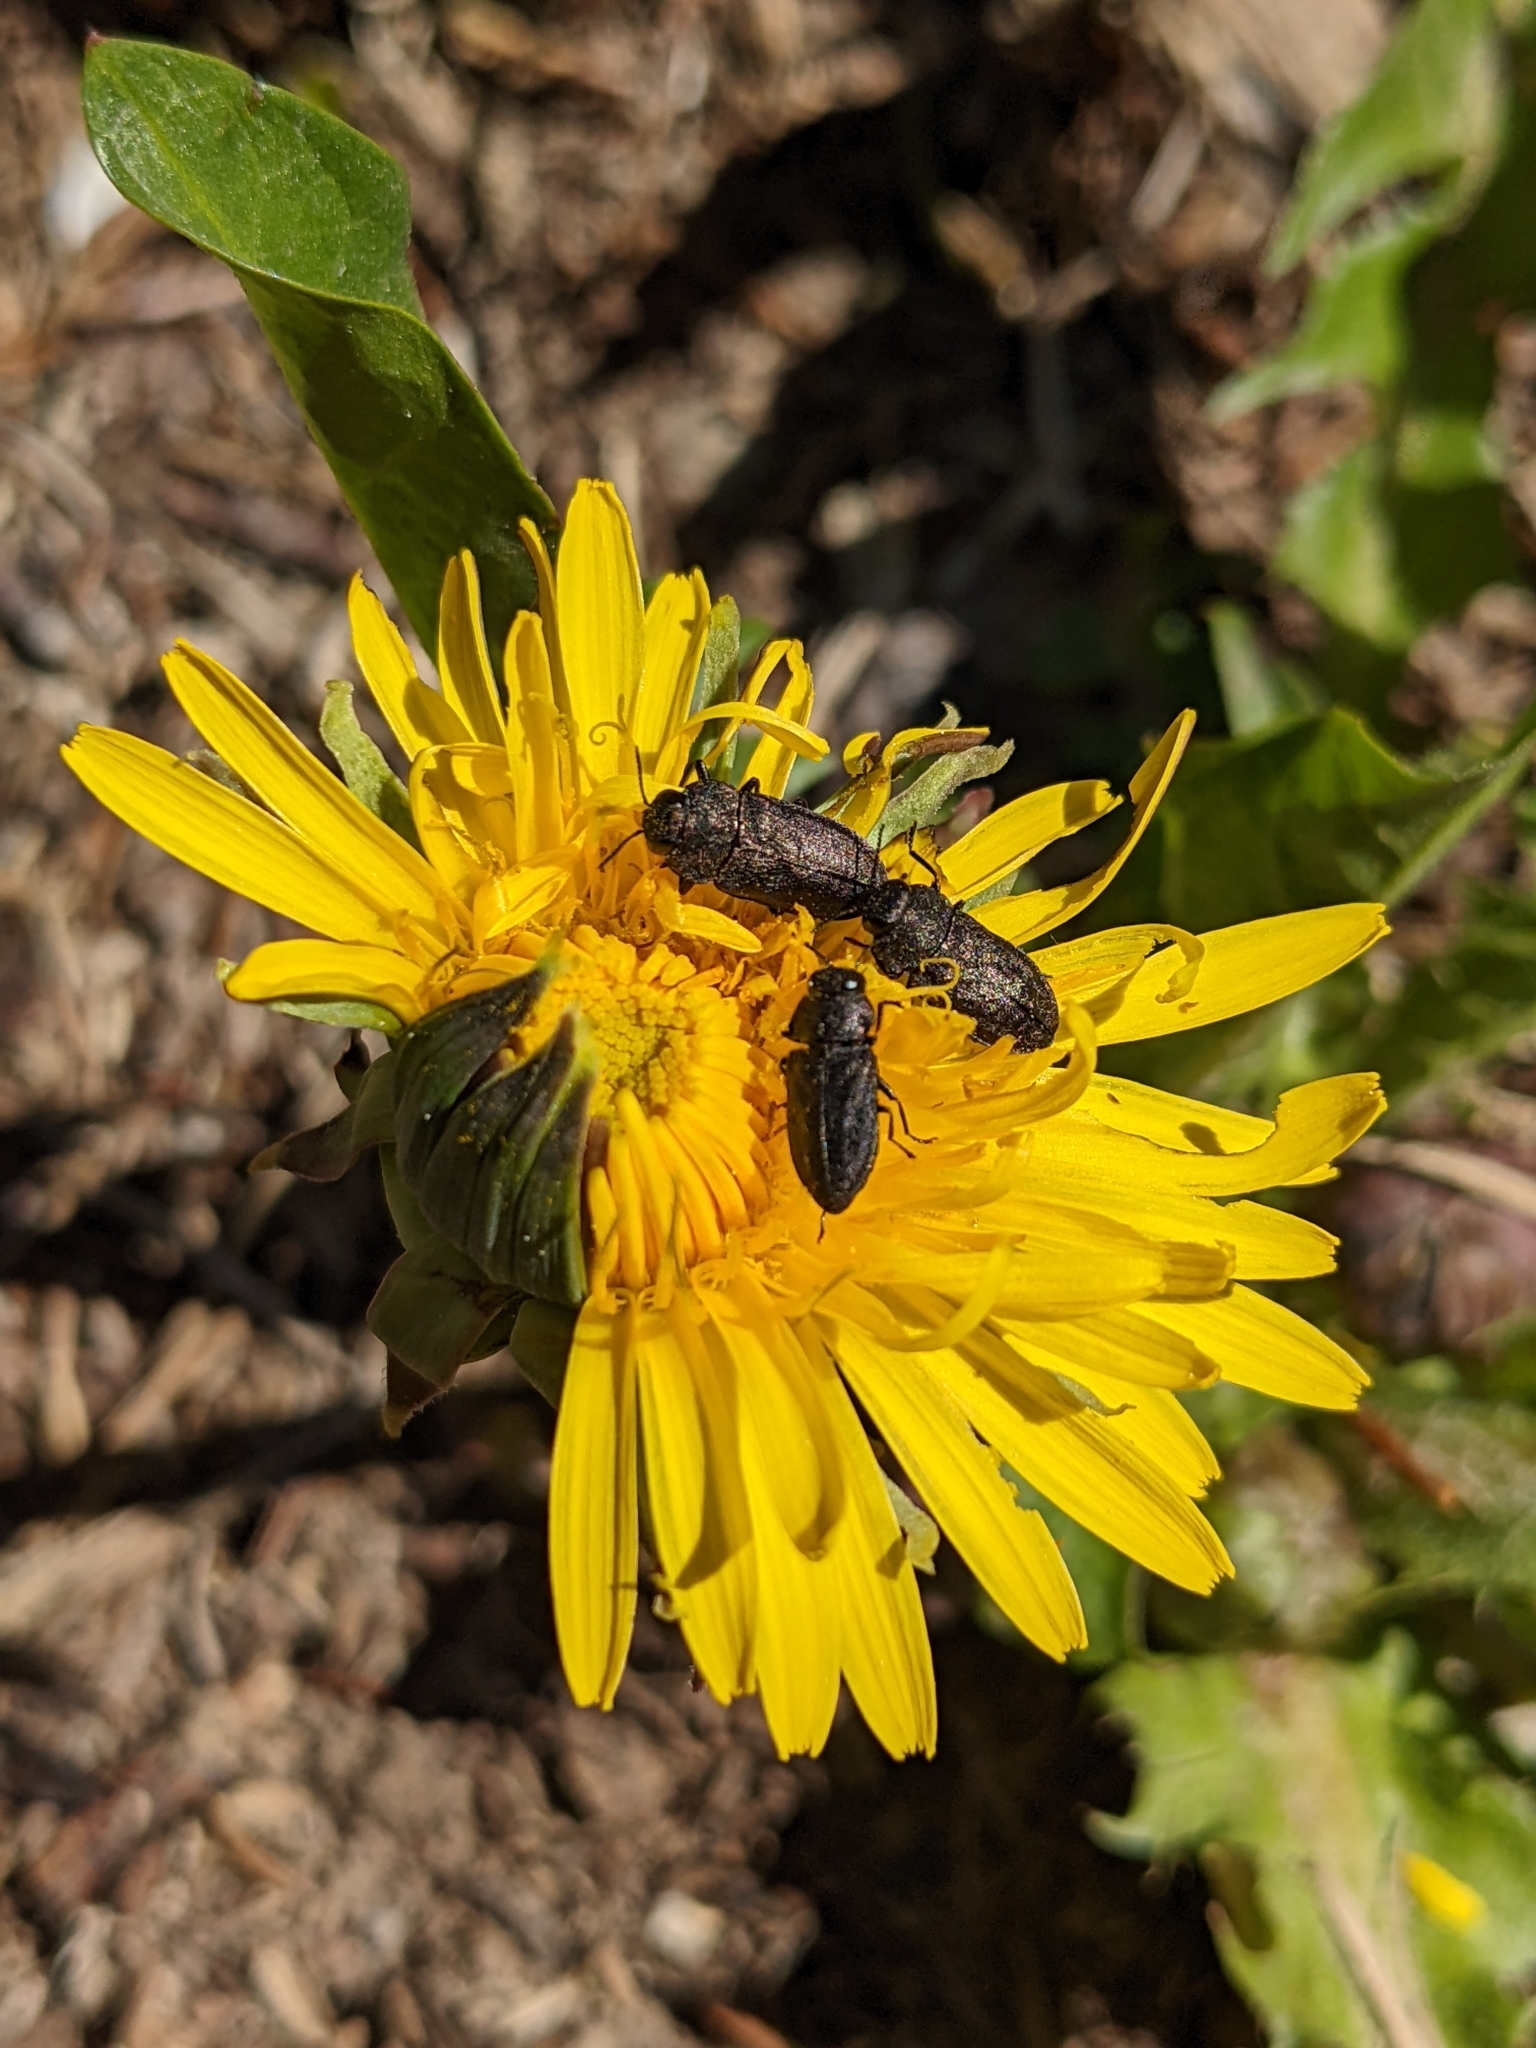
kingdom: Animalia
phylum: Arthropoda
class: Insecta
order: Coleoptera
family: Buprestidae
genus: Anthaxia
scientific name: Anthaxia helvetica
